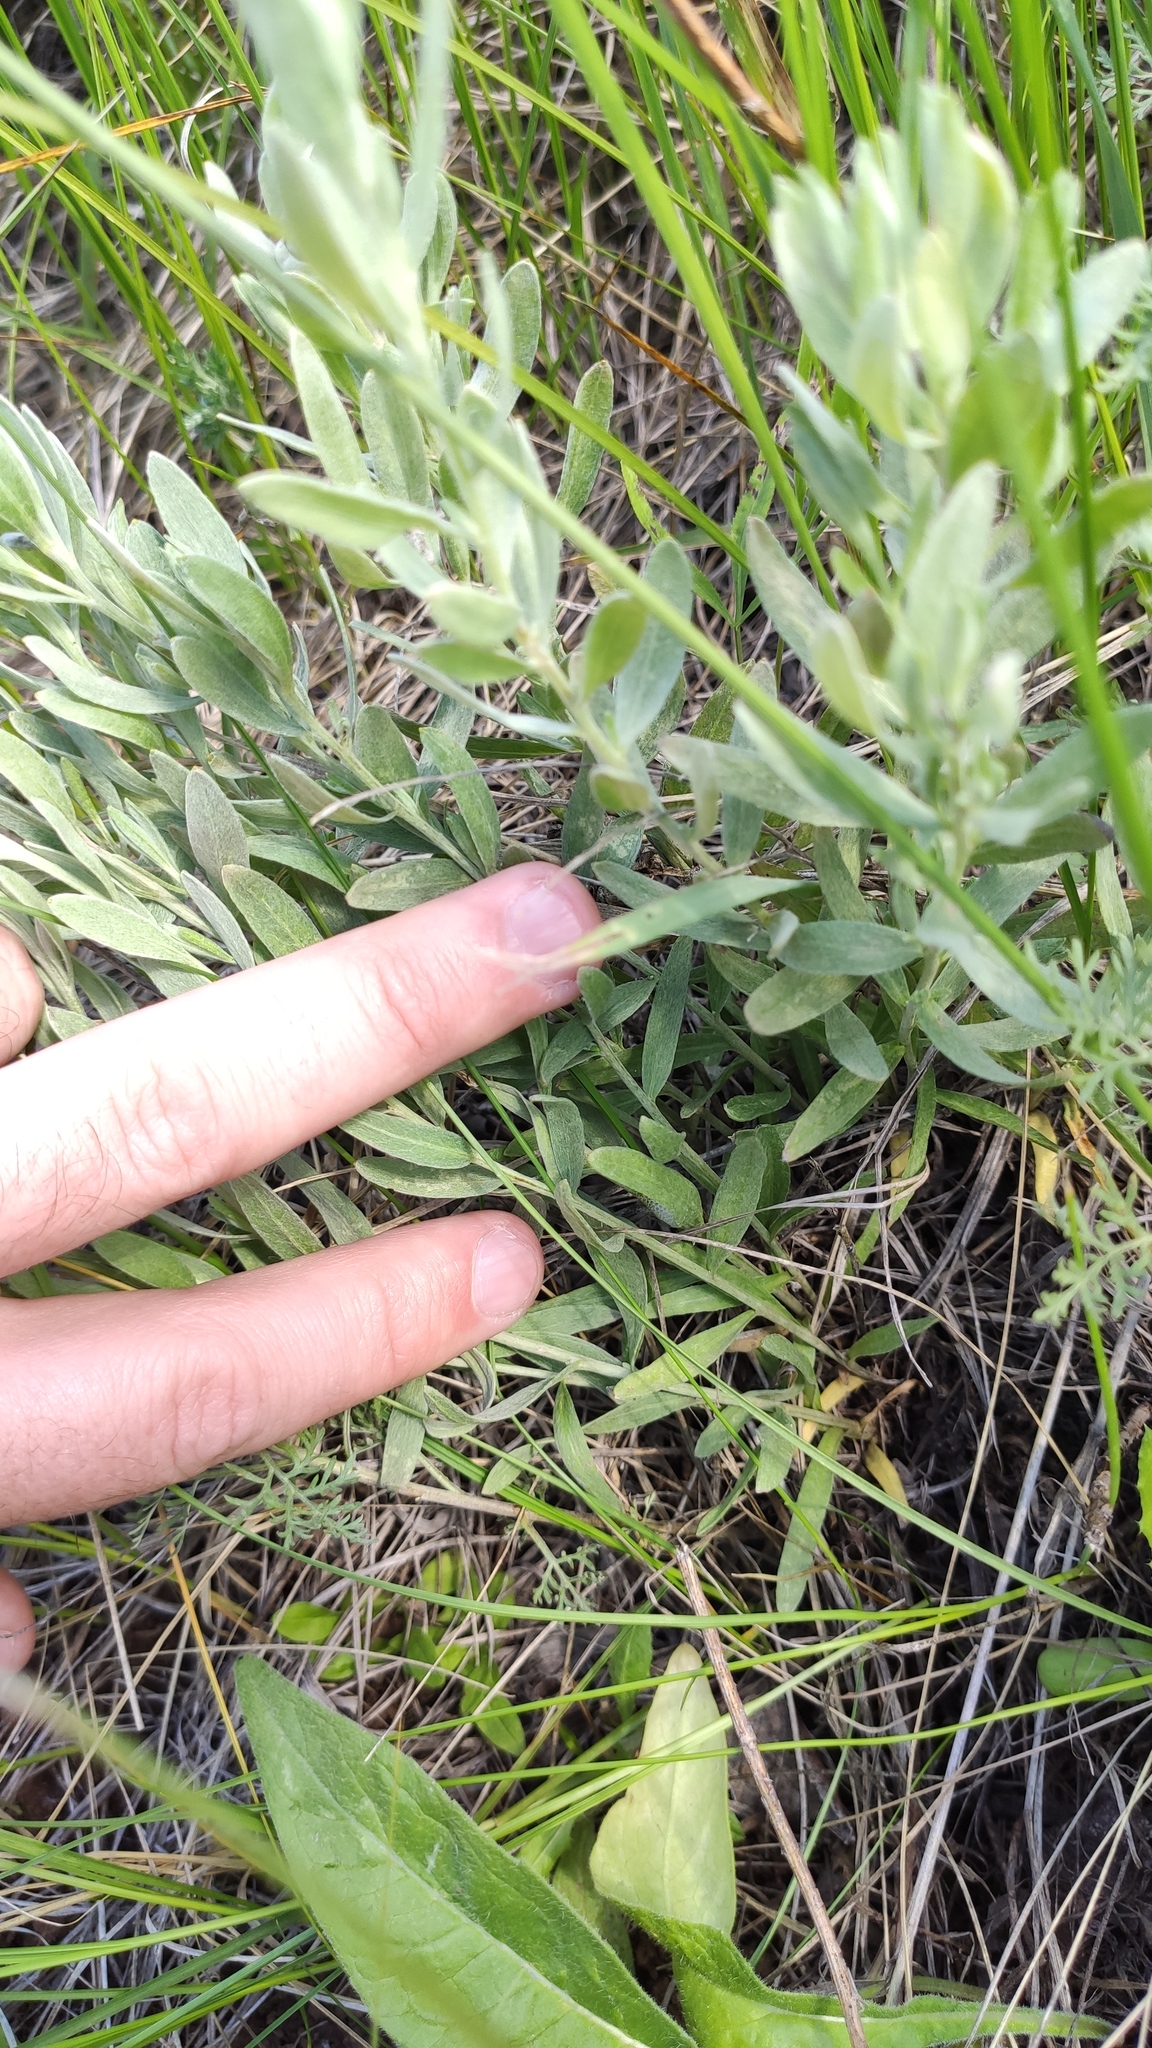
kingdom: Plantae
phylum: Tracheophyta
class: Magnoliopsida
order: Asterales
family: Asteraceae
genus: Galatella
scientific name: Galatella villosa
